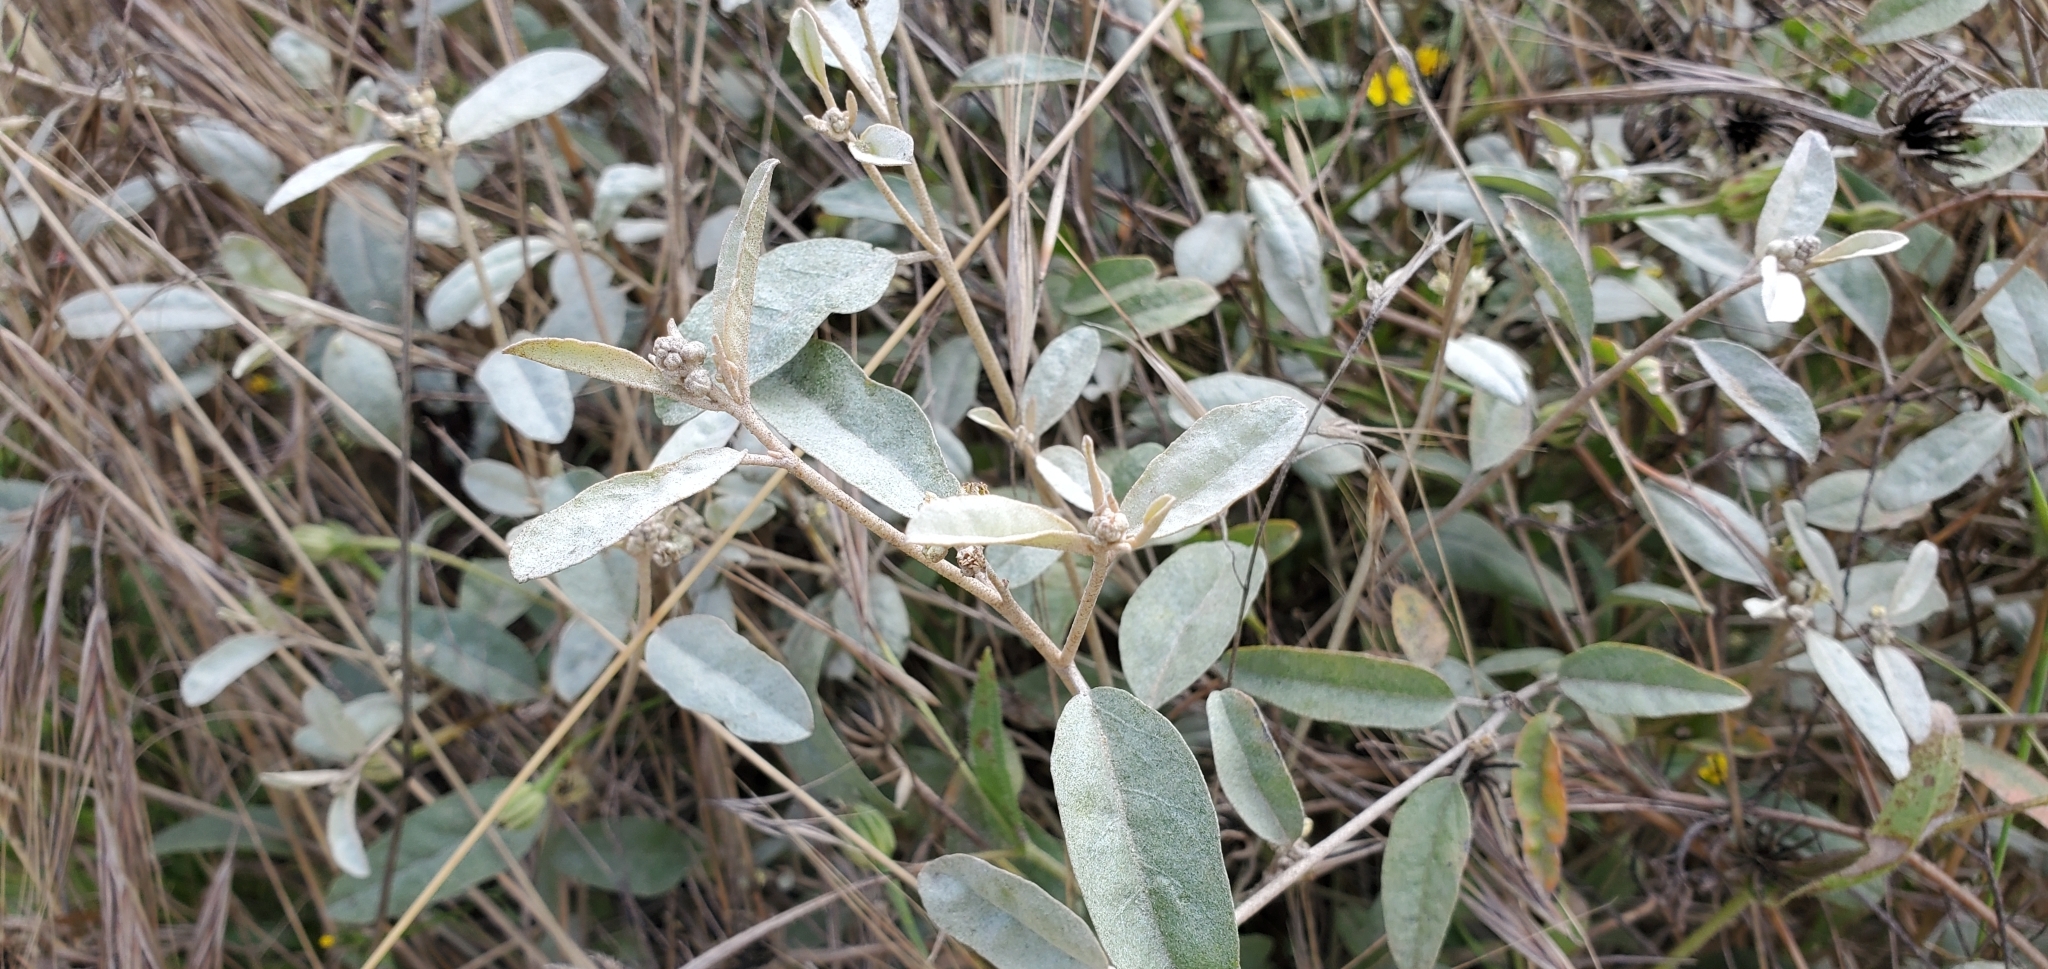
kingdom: Plantae
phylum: Tracheophyta
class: Magnoliopsida
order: Malpighiales
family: Euphorbiaceae
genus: Croton
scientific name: Croton californicus
